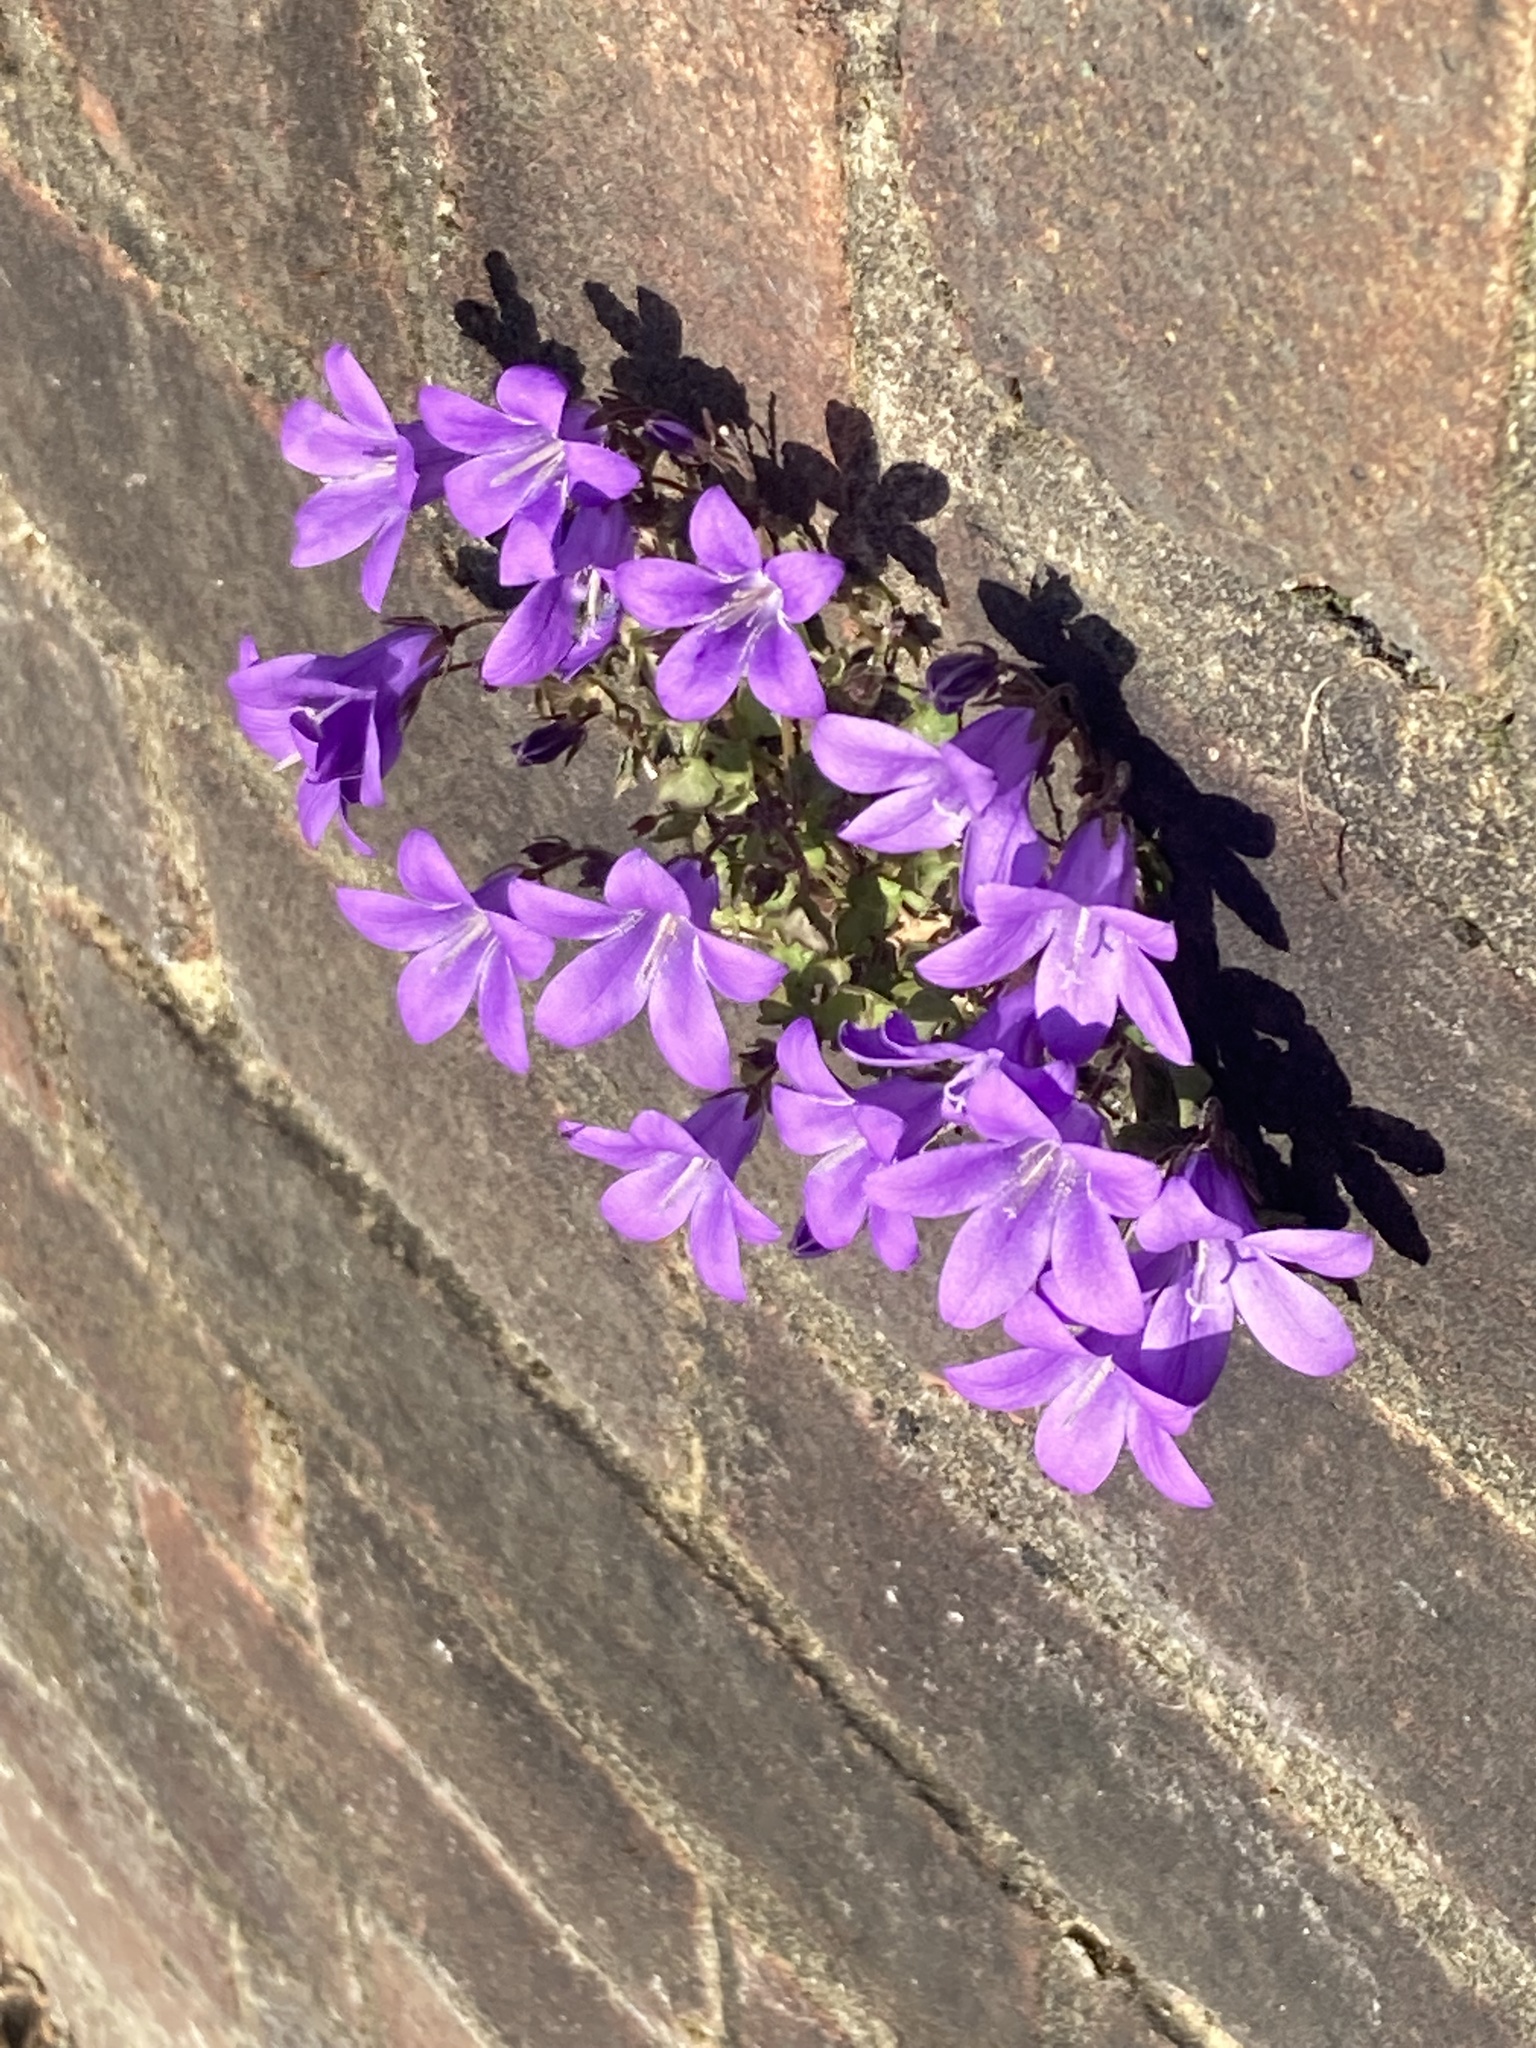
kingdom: Plantae
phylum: Tracheophyta
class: Magnoliopsida
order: Asterales
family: Campanulaceae
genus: Campanula
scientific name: Campanula portenschlagiana
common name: Adria bellflower
